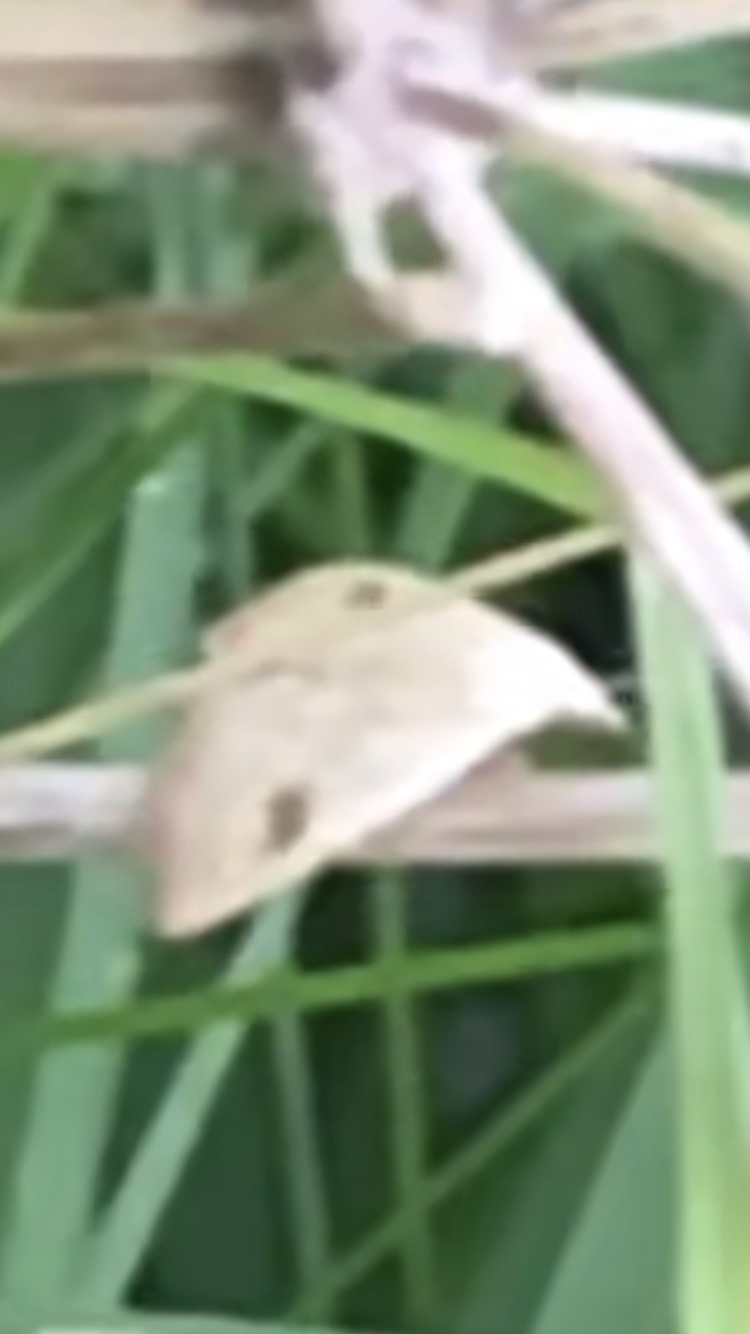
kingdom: Animalia
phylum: Arthropoda
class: Insecta
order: Lepidoptera
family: Erebidae
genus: Rivula
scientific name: Rivula sericealis
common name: Straw dot
